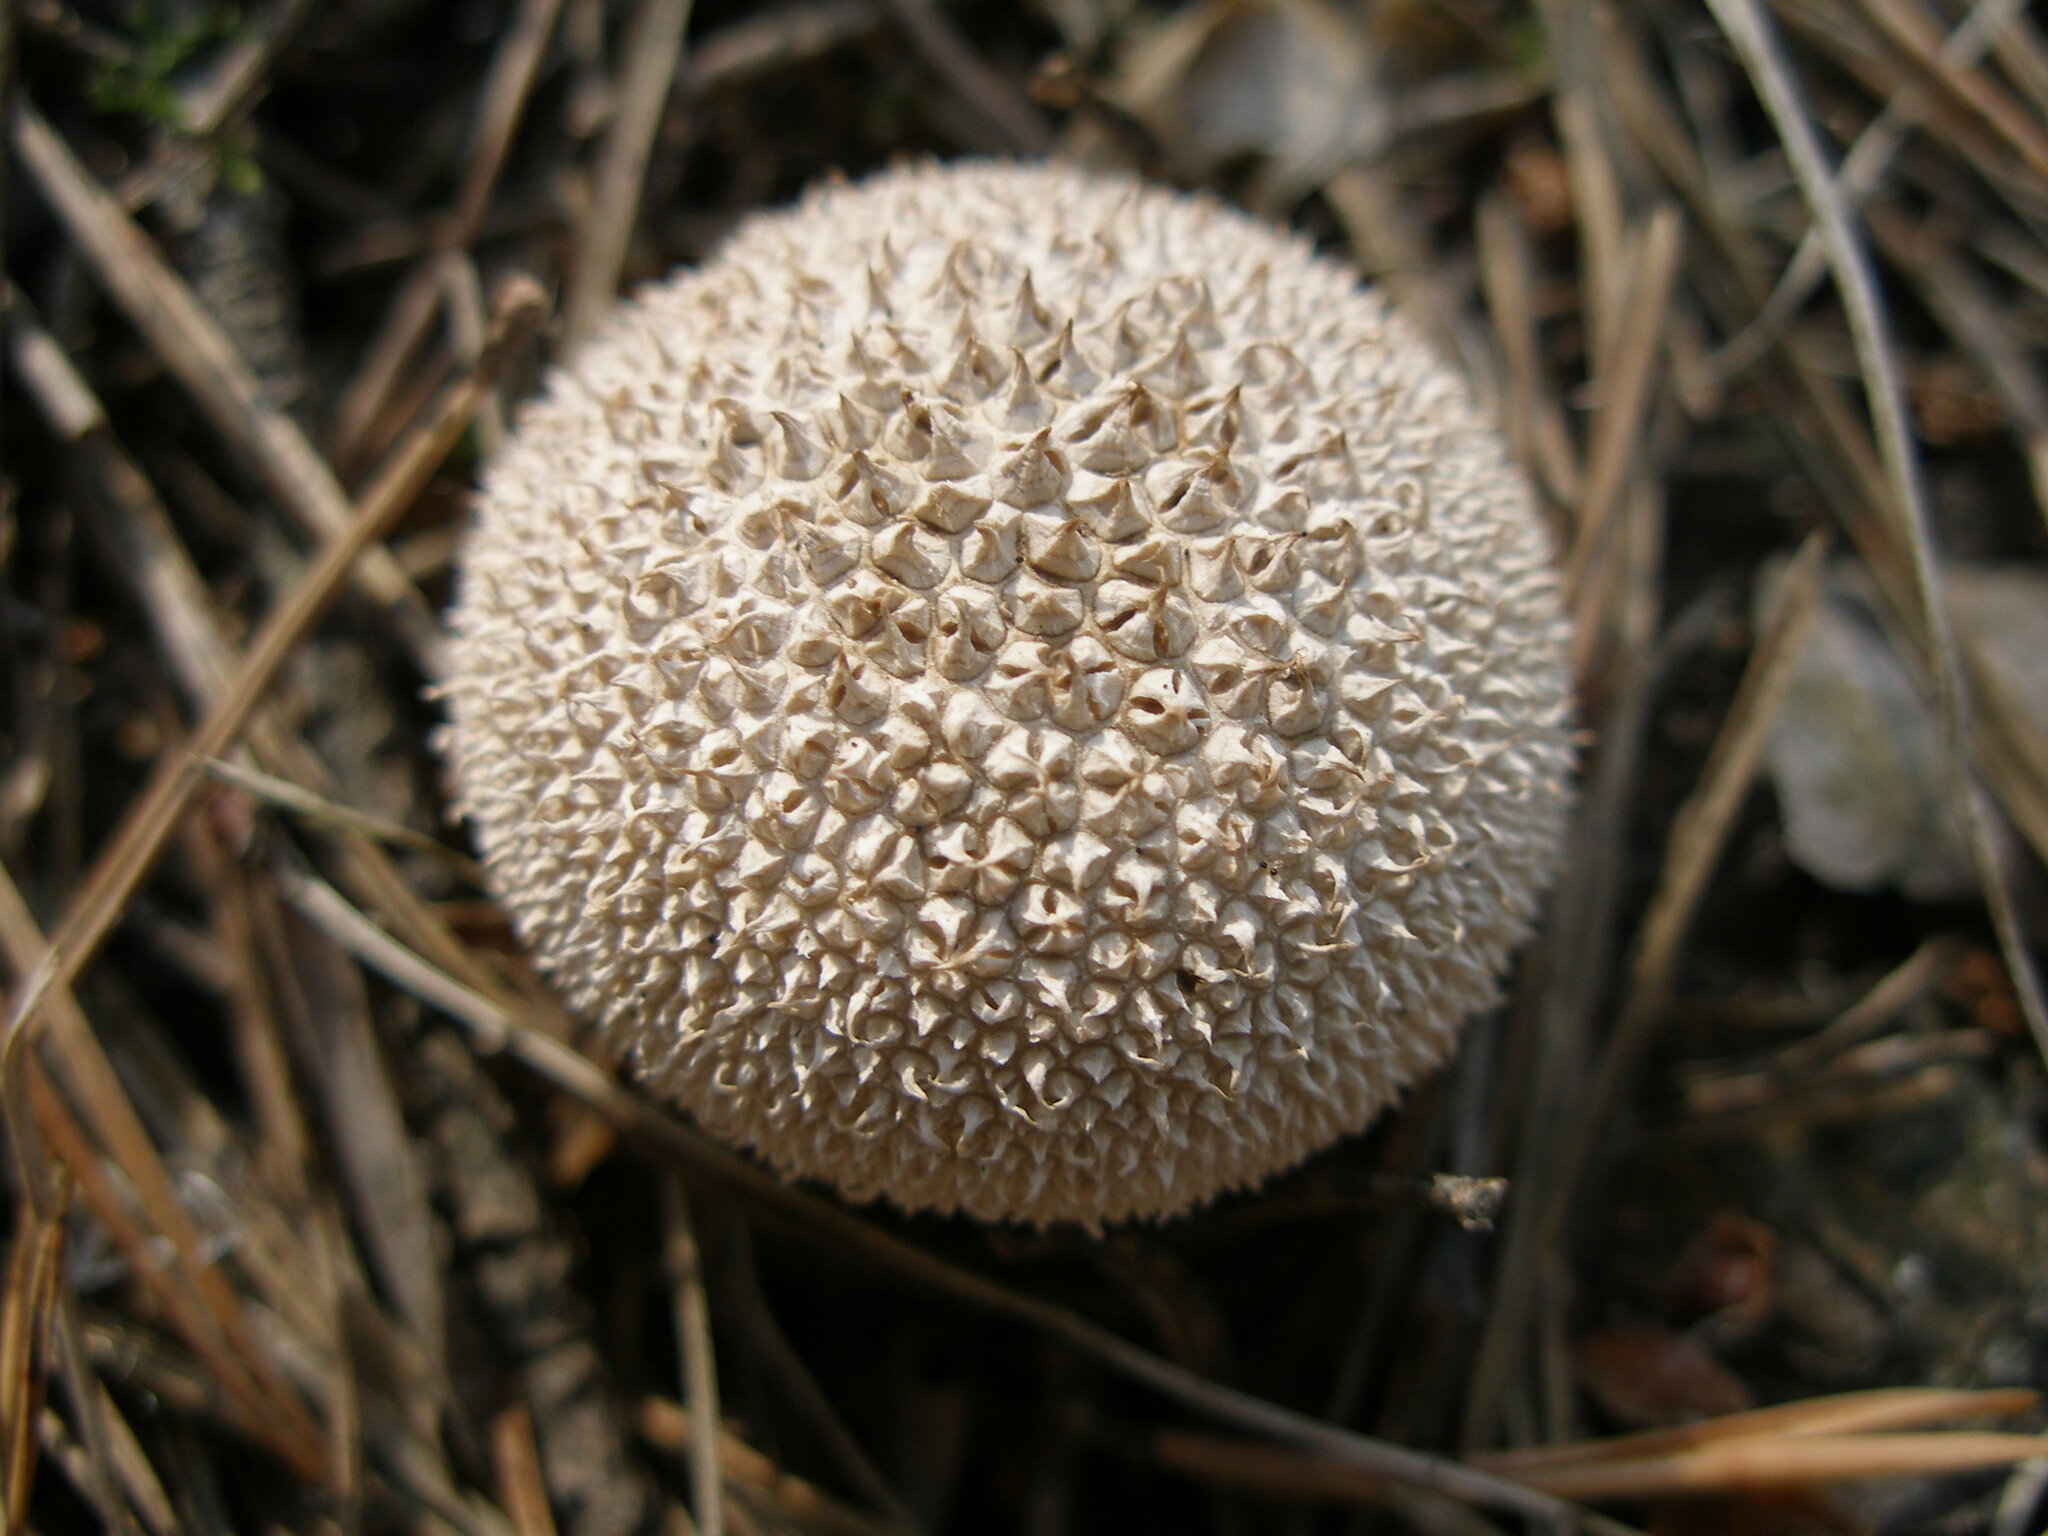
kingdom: Fungi
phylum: Basidiomycota
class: Agaricomycetes
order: Agaricales
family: Agaricaceae
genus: Lycoperdon
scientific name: Lycoperdon marginatum
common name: Peeling puffball
